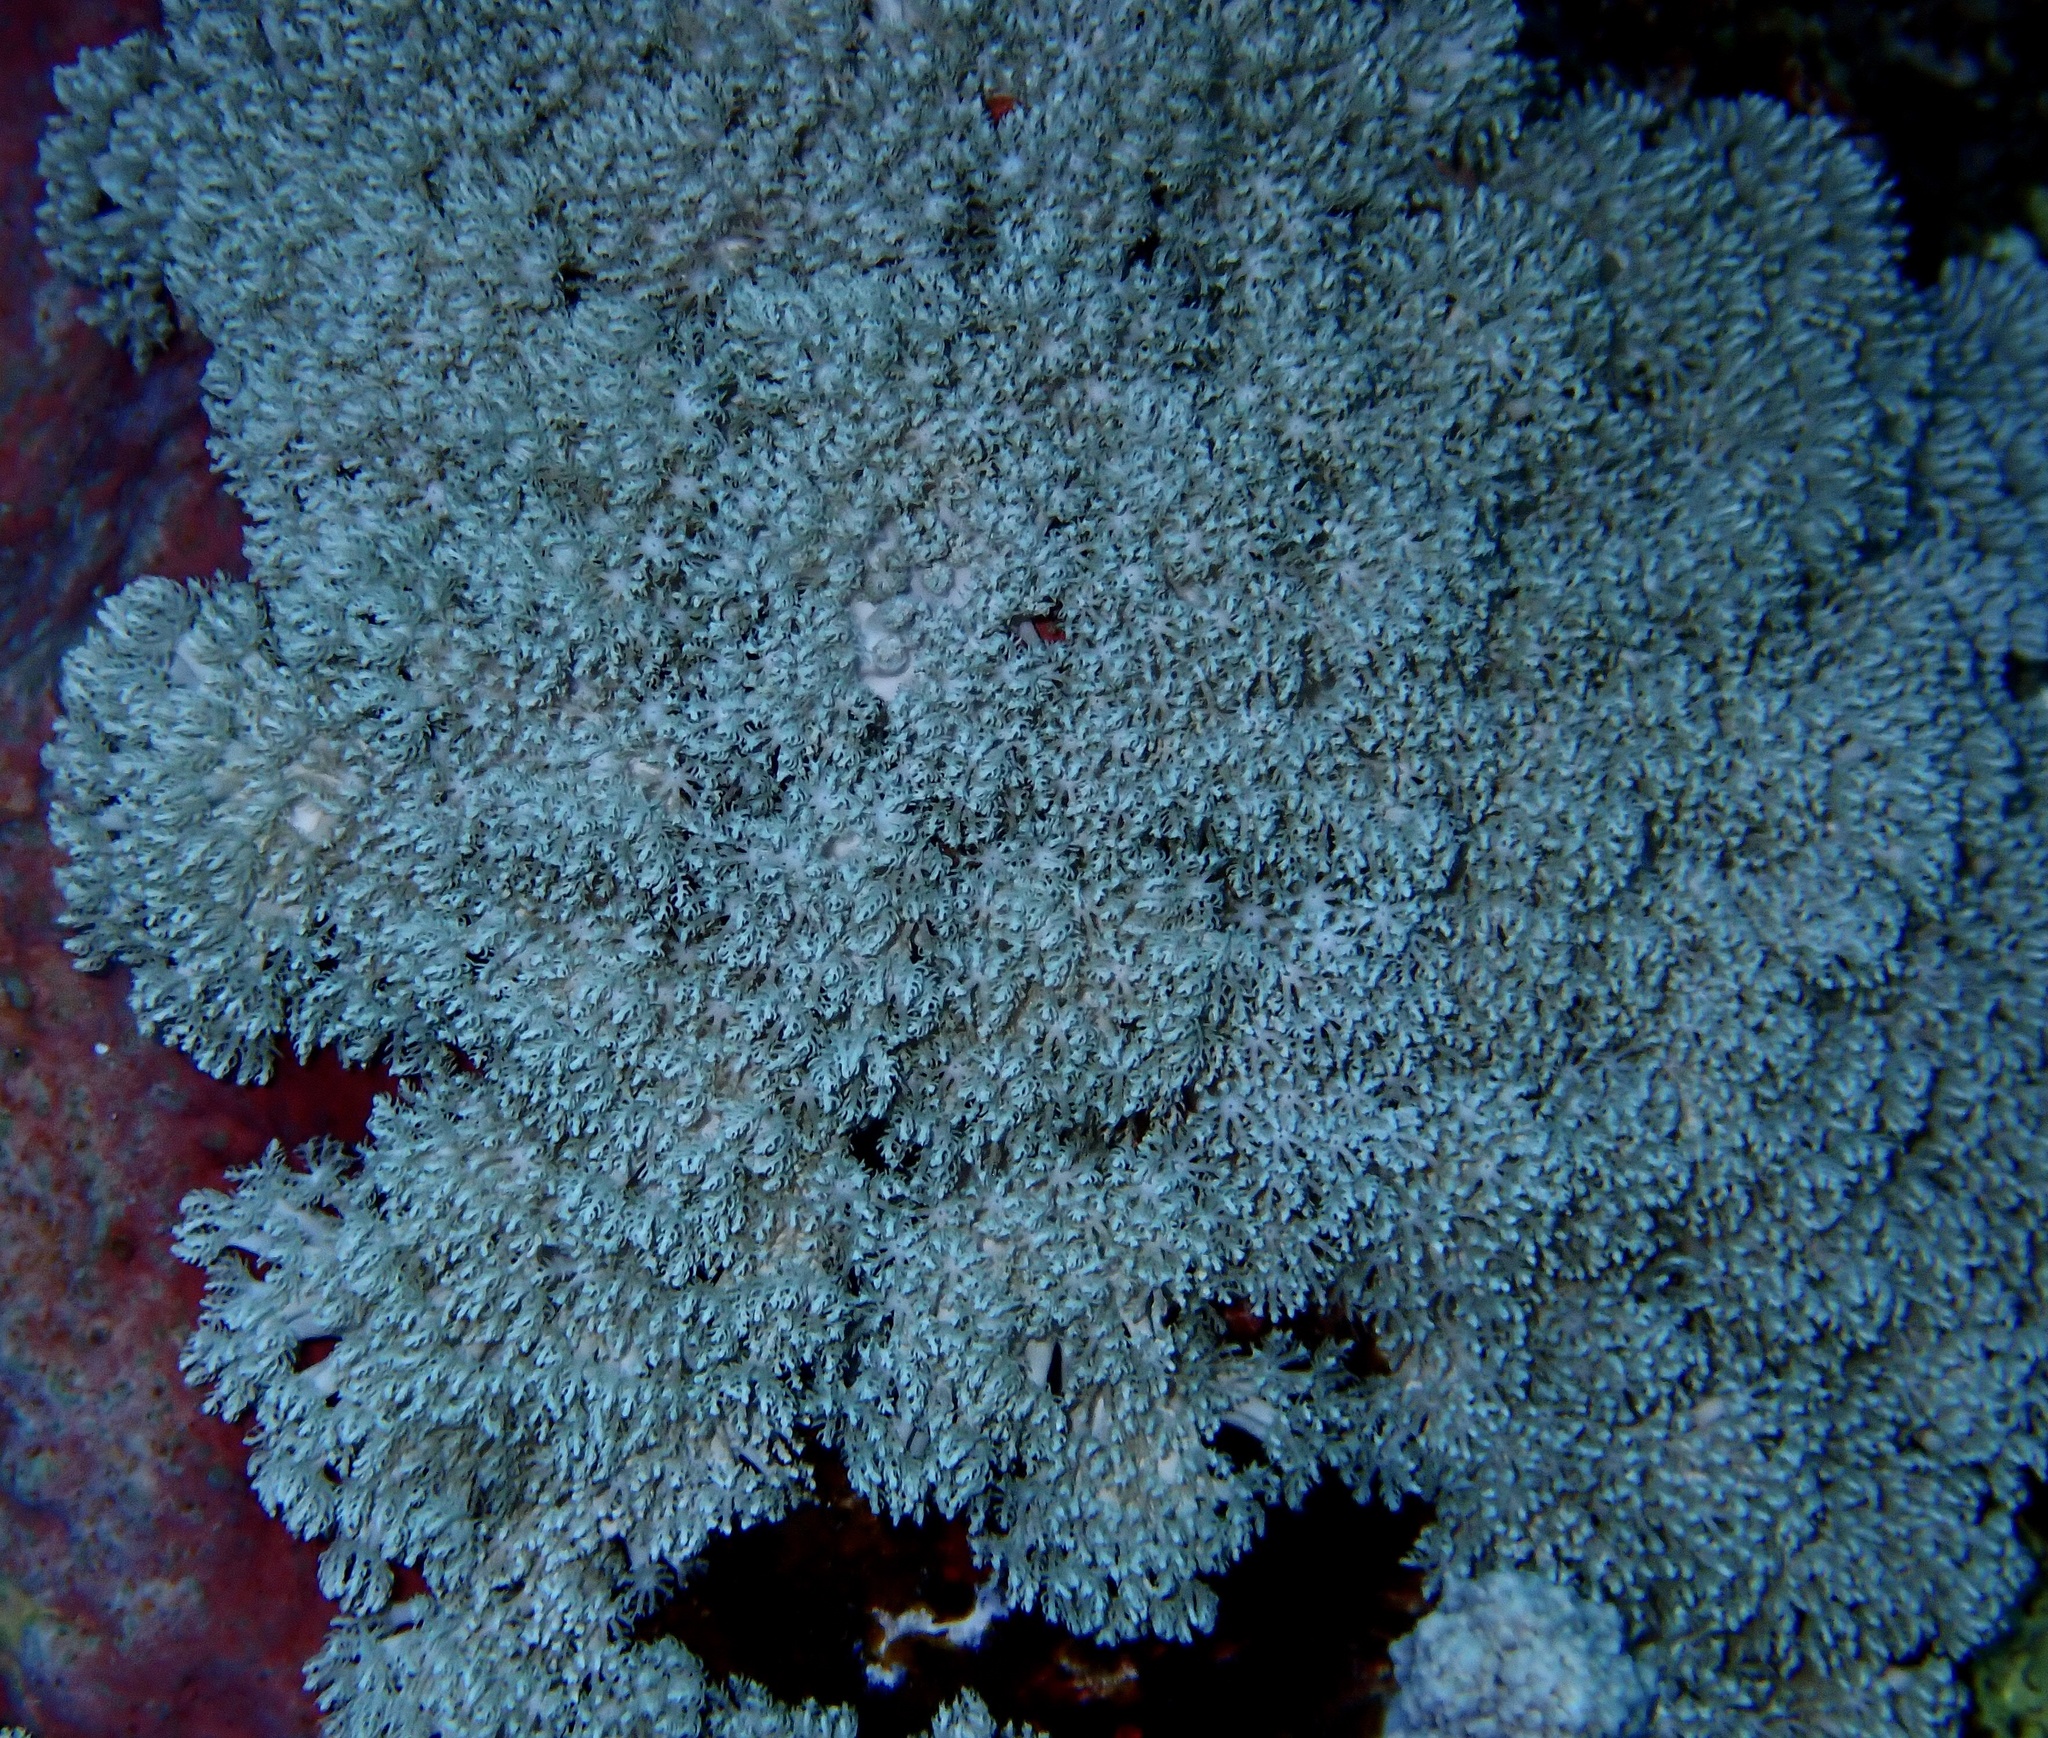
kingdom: Animalia
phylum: Cnidaria
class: Anthozoa
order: Malacalcyonacea
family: Xeniidae
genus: Sympodium
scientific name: Sympodium caeruleum
